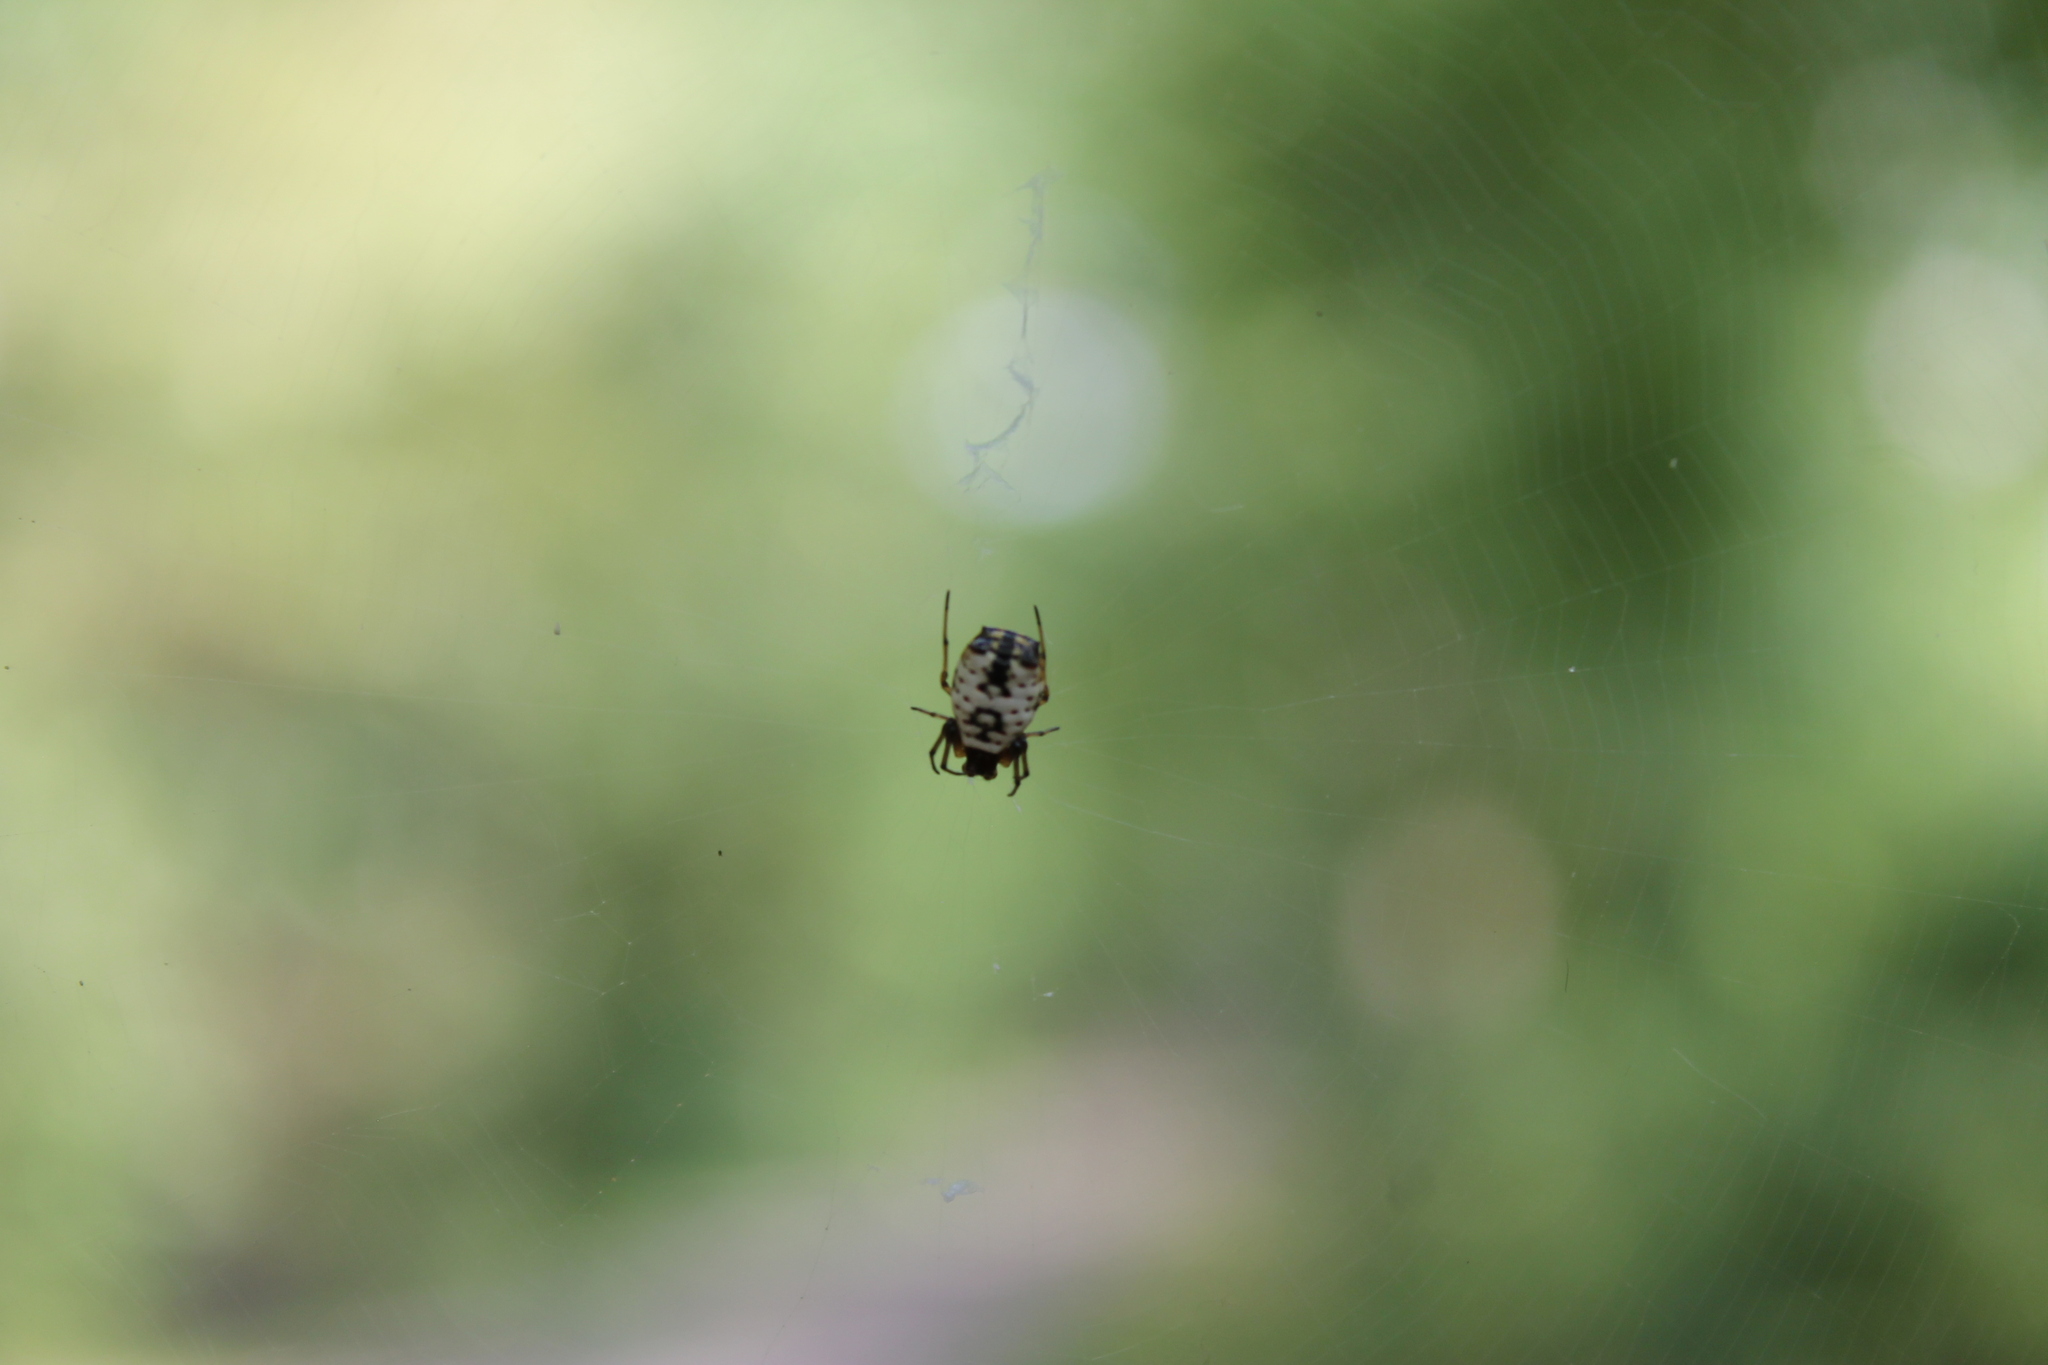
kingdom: Animalia
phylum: Arthropoda
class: Arachnida
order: Araneae
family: Araneidae
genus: Micrathena
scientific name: Micrathena mitrata
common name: Orb weavers
